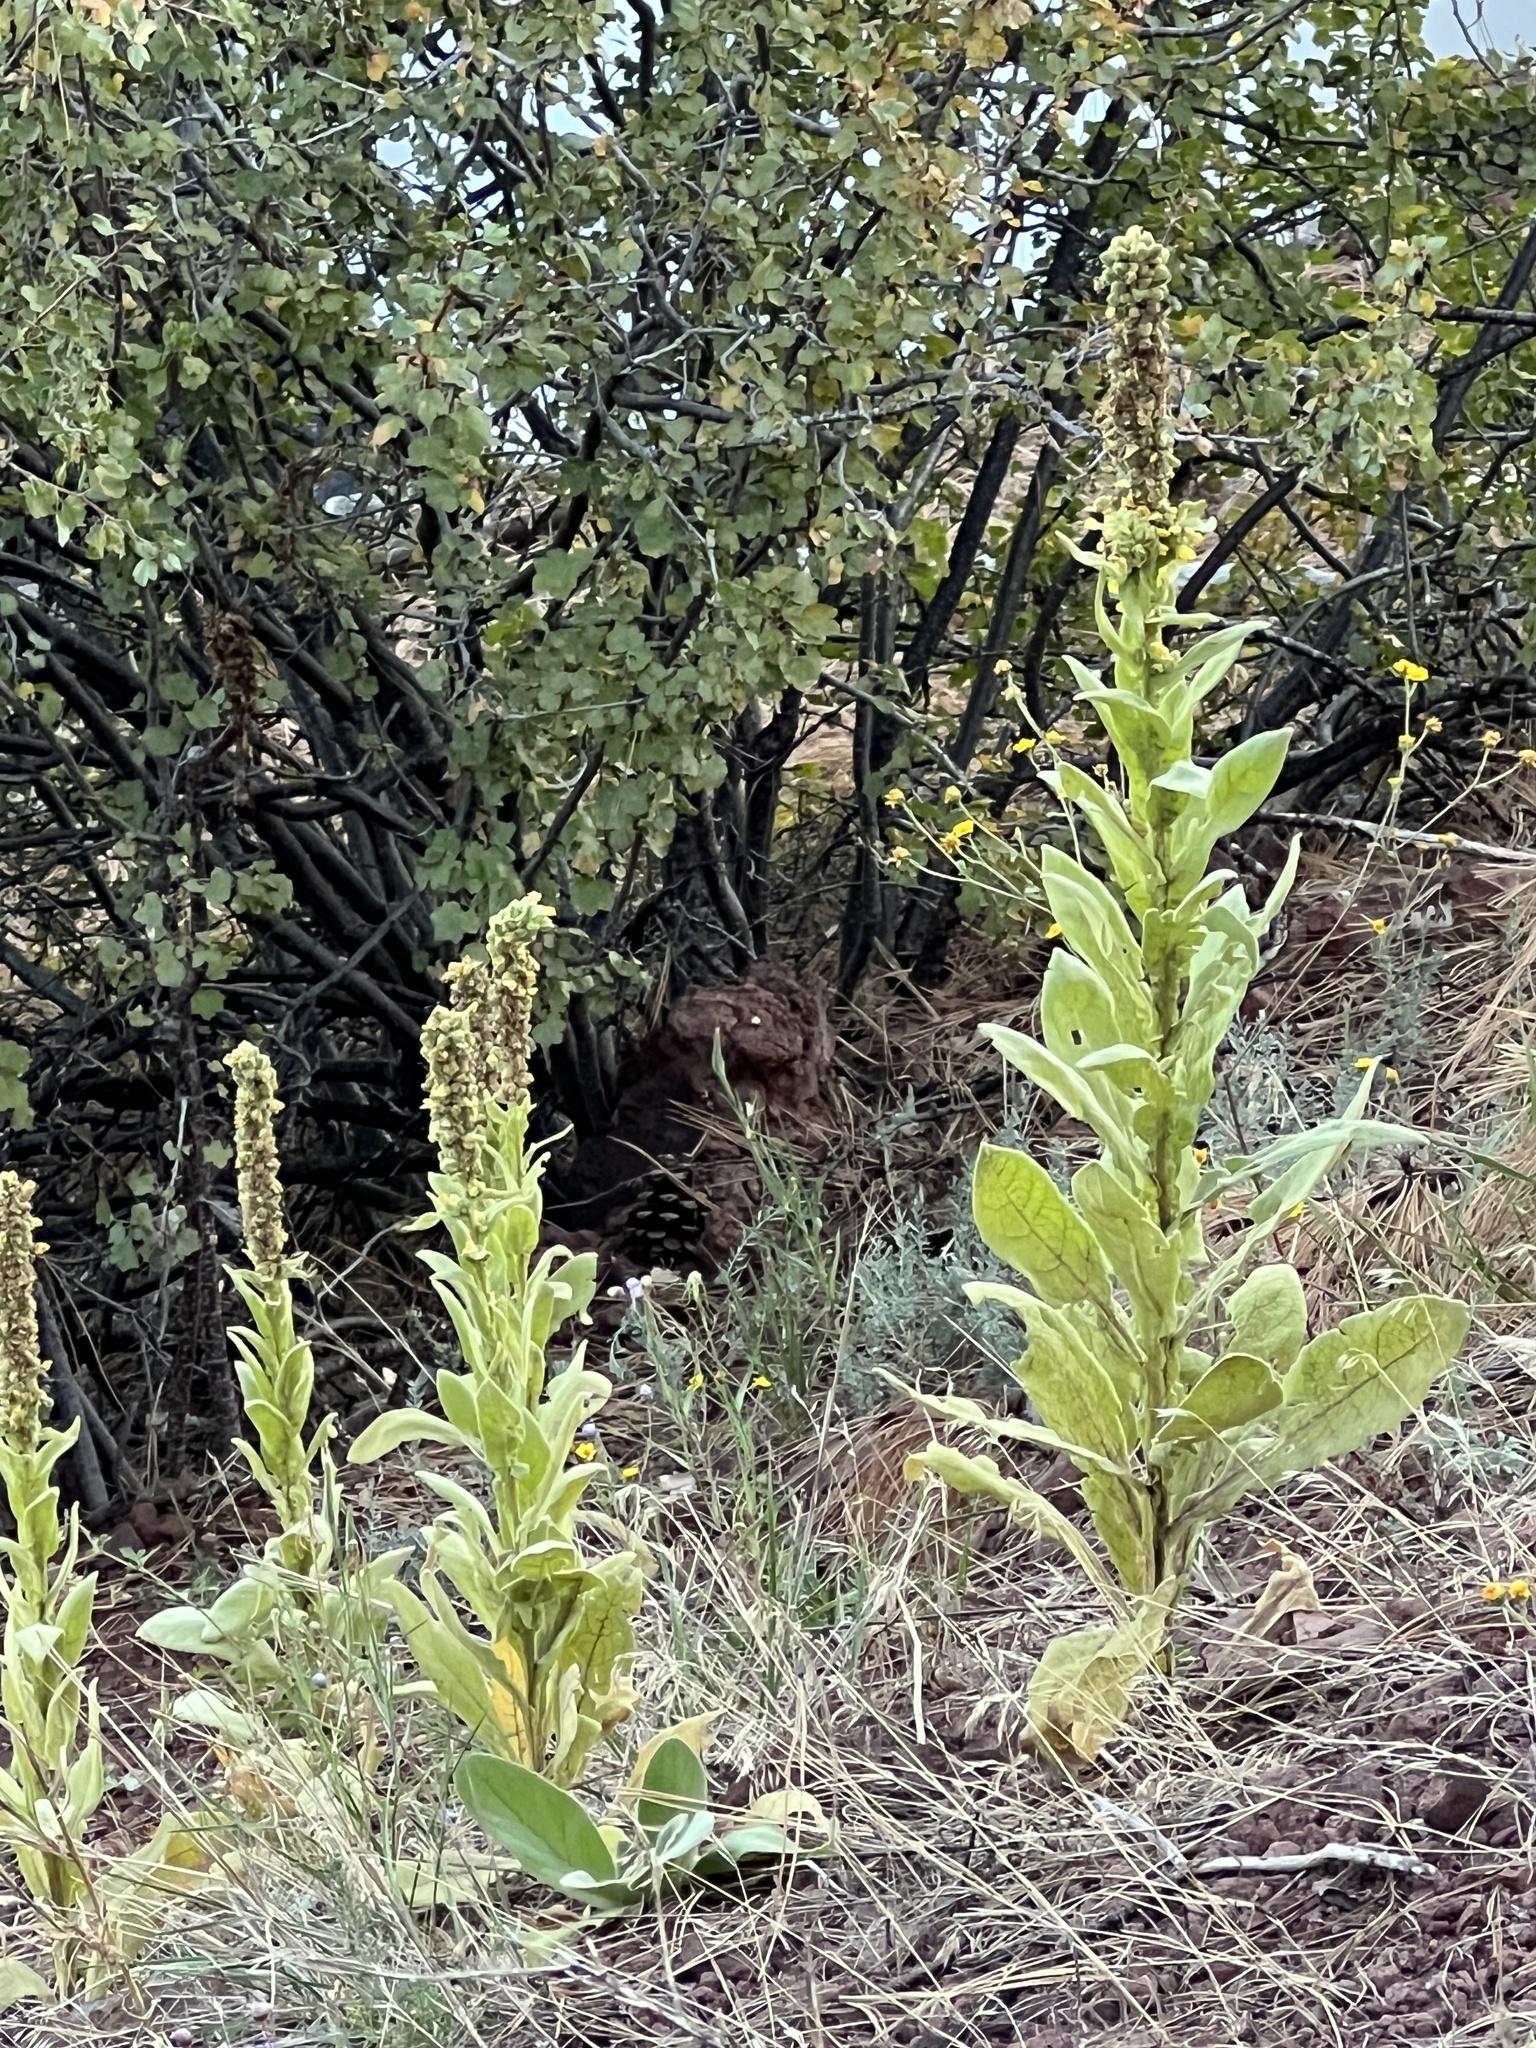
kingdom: Plantae
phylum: Tracheophyta
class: Magnoliopsida
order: Lamiales
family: Scrophulariaceae
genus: Verbascum
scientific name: Verbascum thapsus
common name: Common mullein
